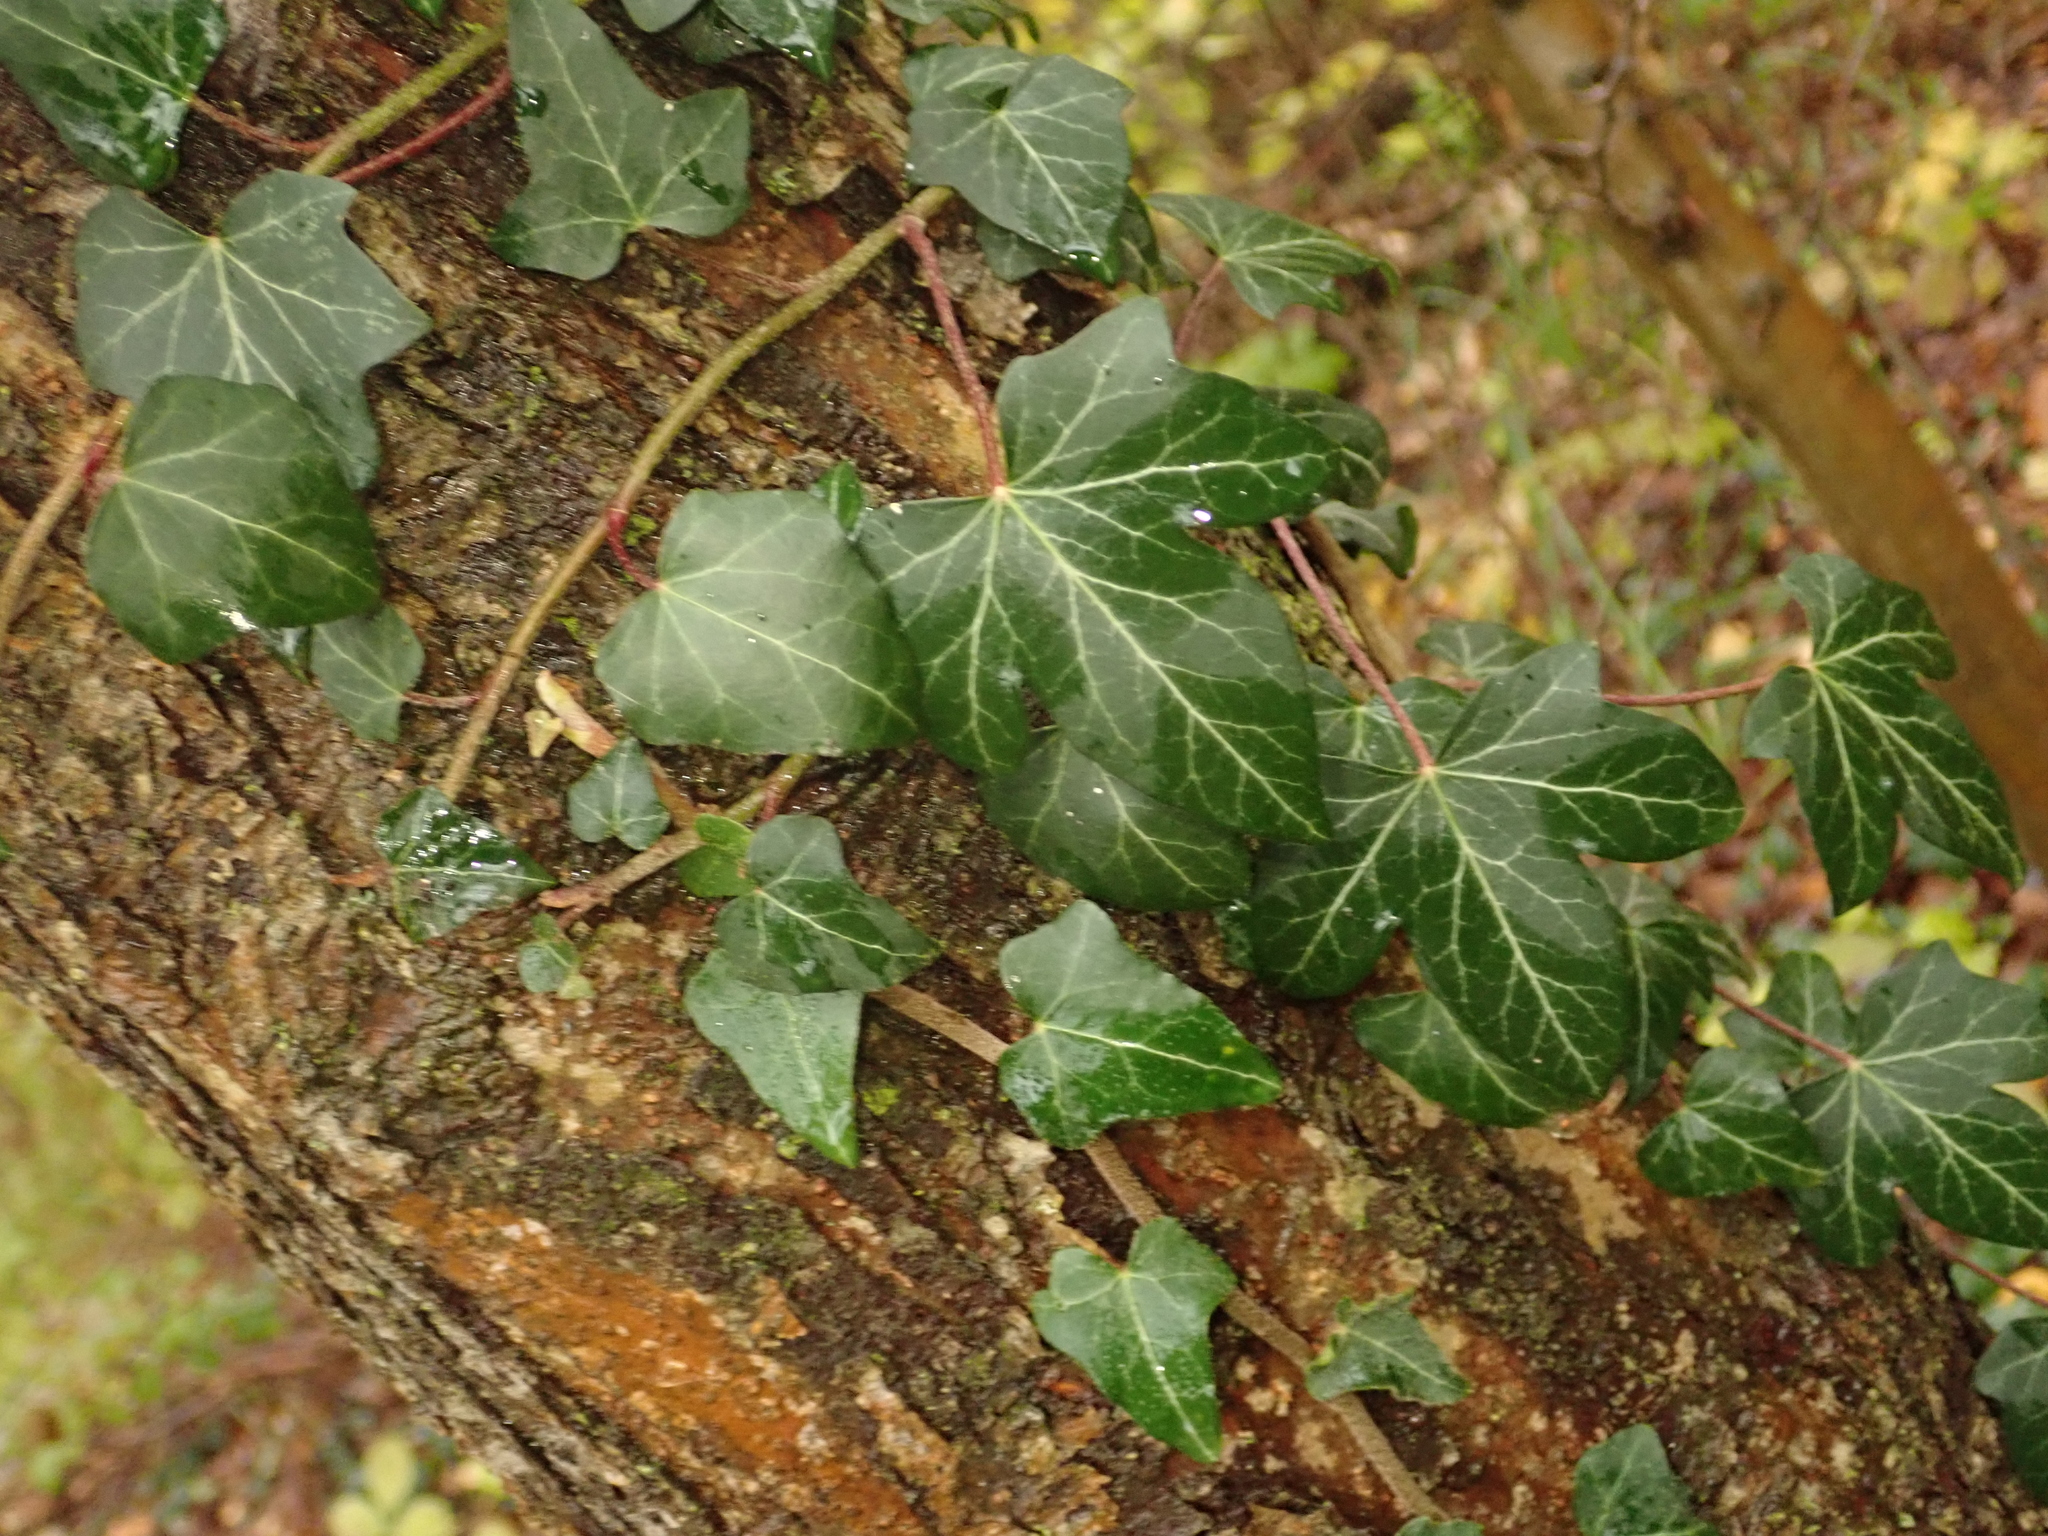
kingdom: Plantae
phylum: Tracheophyta
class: Magnoliopsida
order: Apiales
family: Araliaceae
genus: Hedera
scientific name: Hedera helix
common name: Ivy
